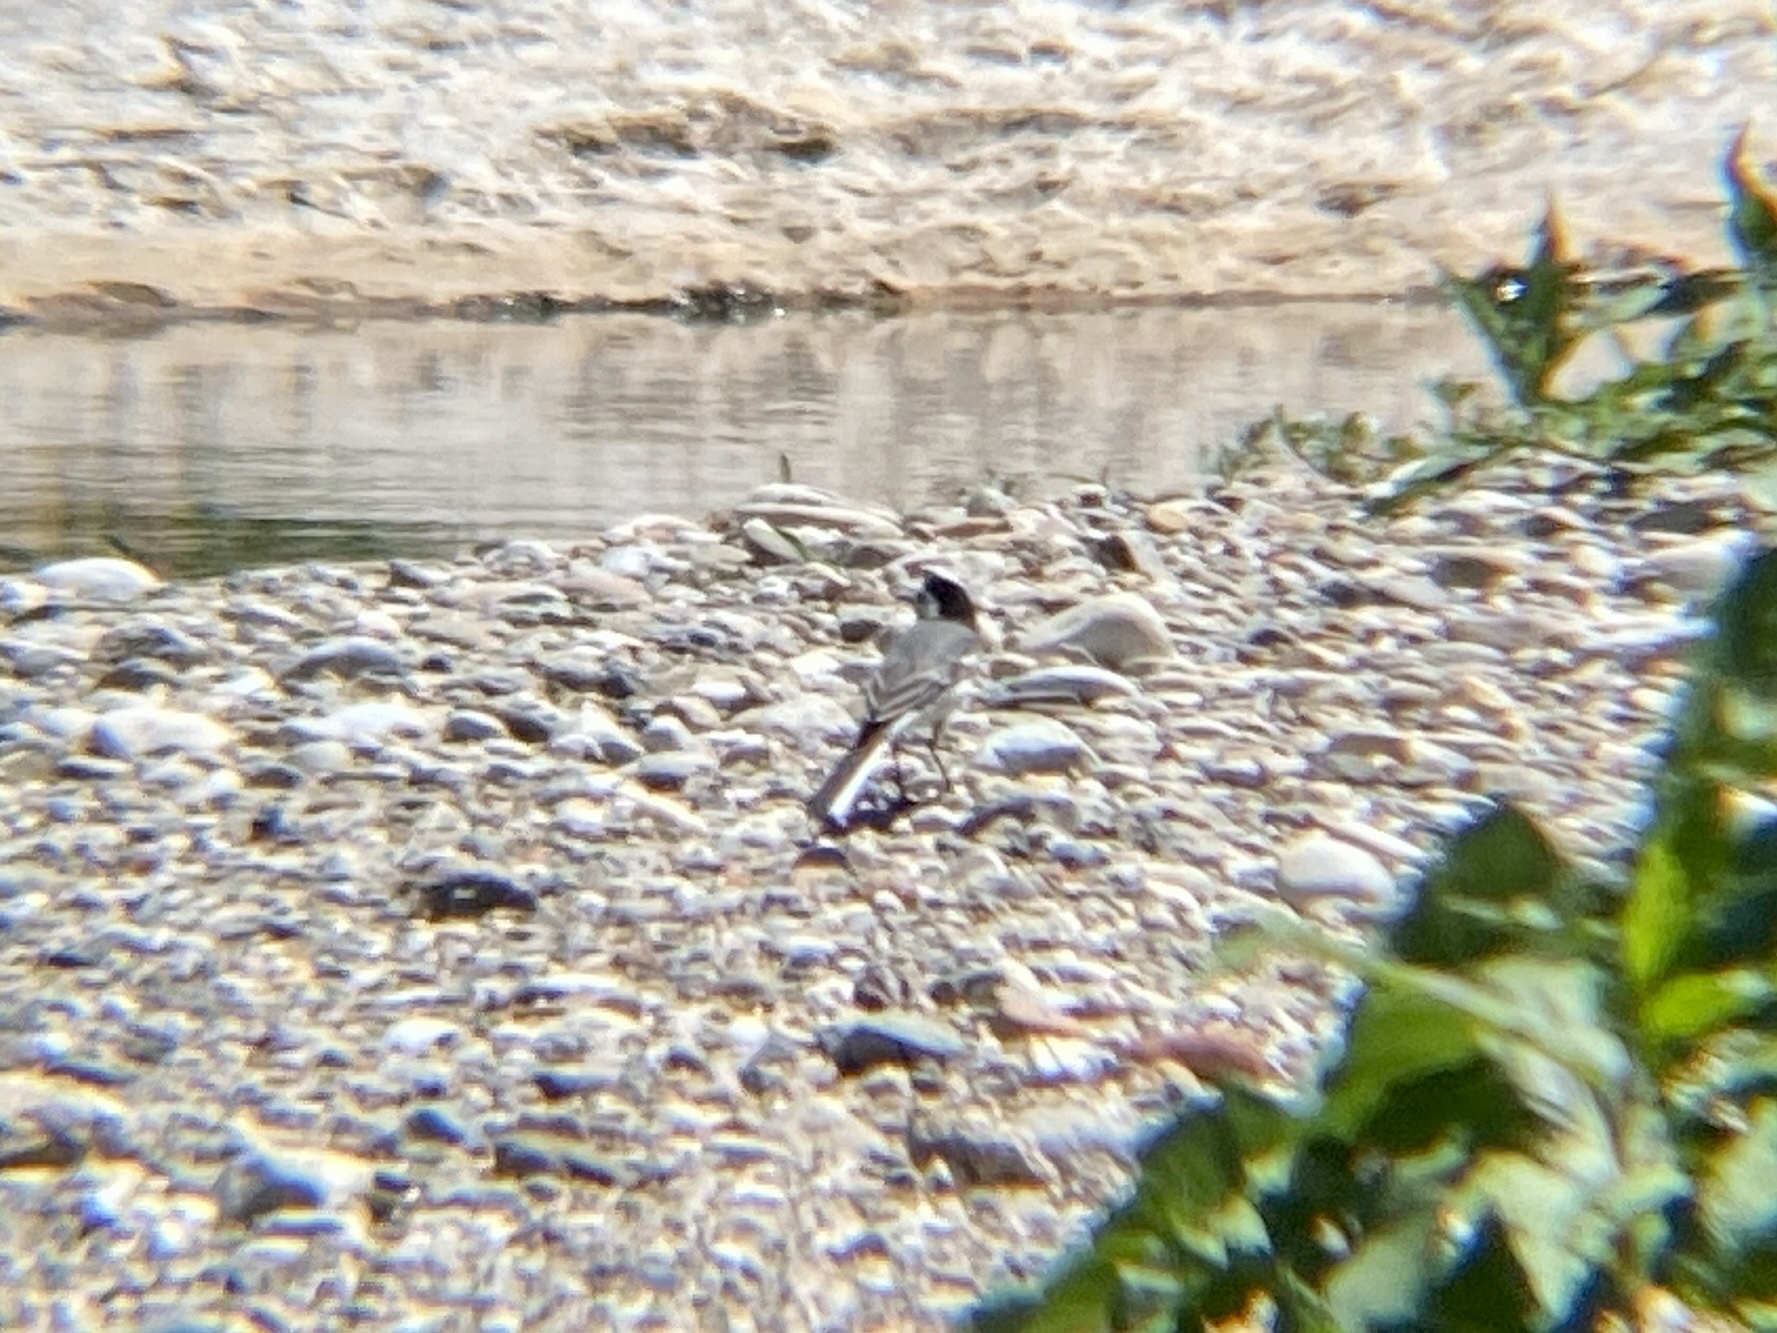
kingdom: Animalia
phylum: Chordata
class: Aves
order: Passeriformes
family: Motacillidae
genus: Motacilla
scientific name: Motacilla alba
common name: White wagtail
